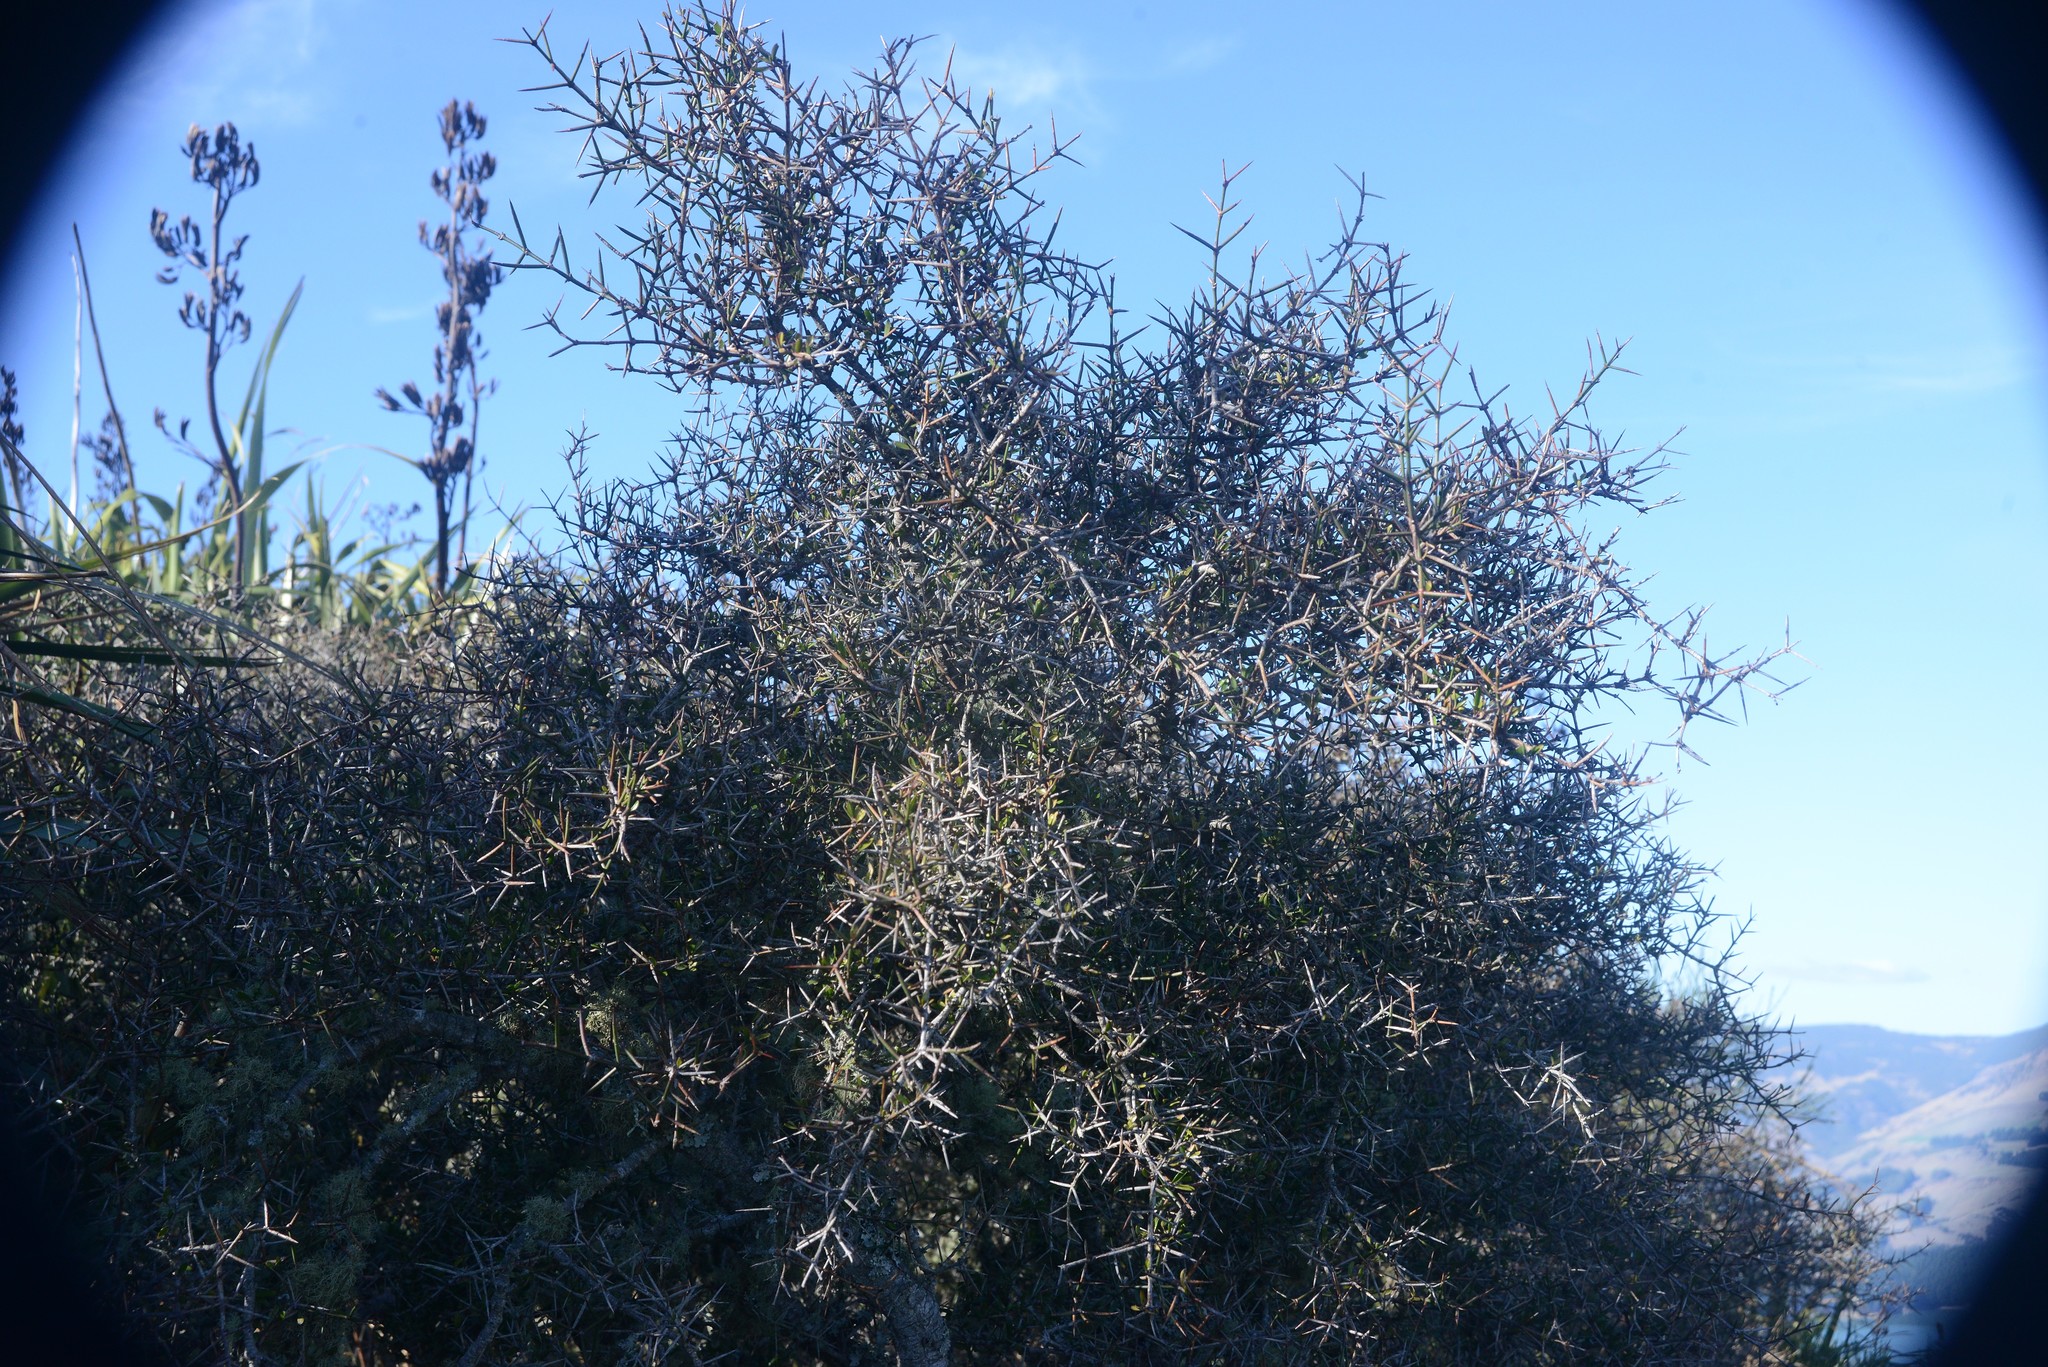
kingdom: Plantae
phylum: Tracheophyta
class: Magnoliopsida
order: Rosales
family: Rhamnaceae
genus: Discaria
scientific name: Discaria toumatou
